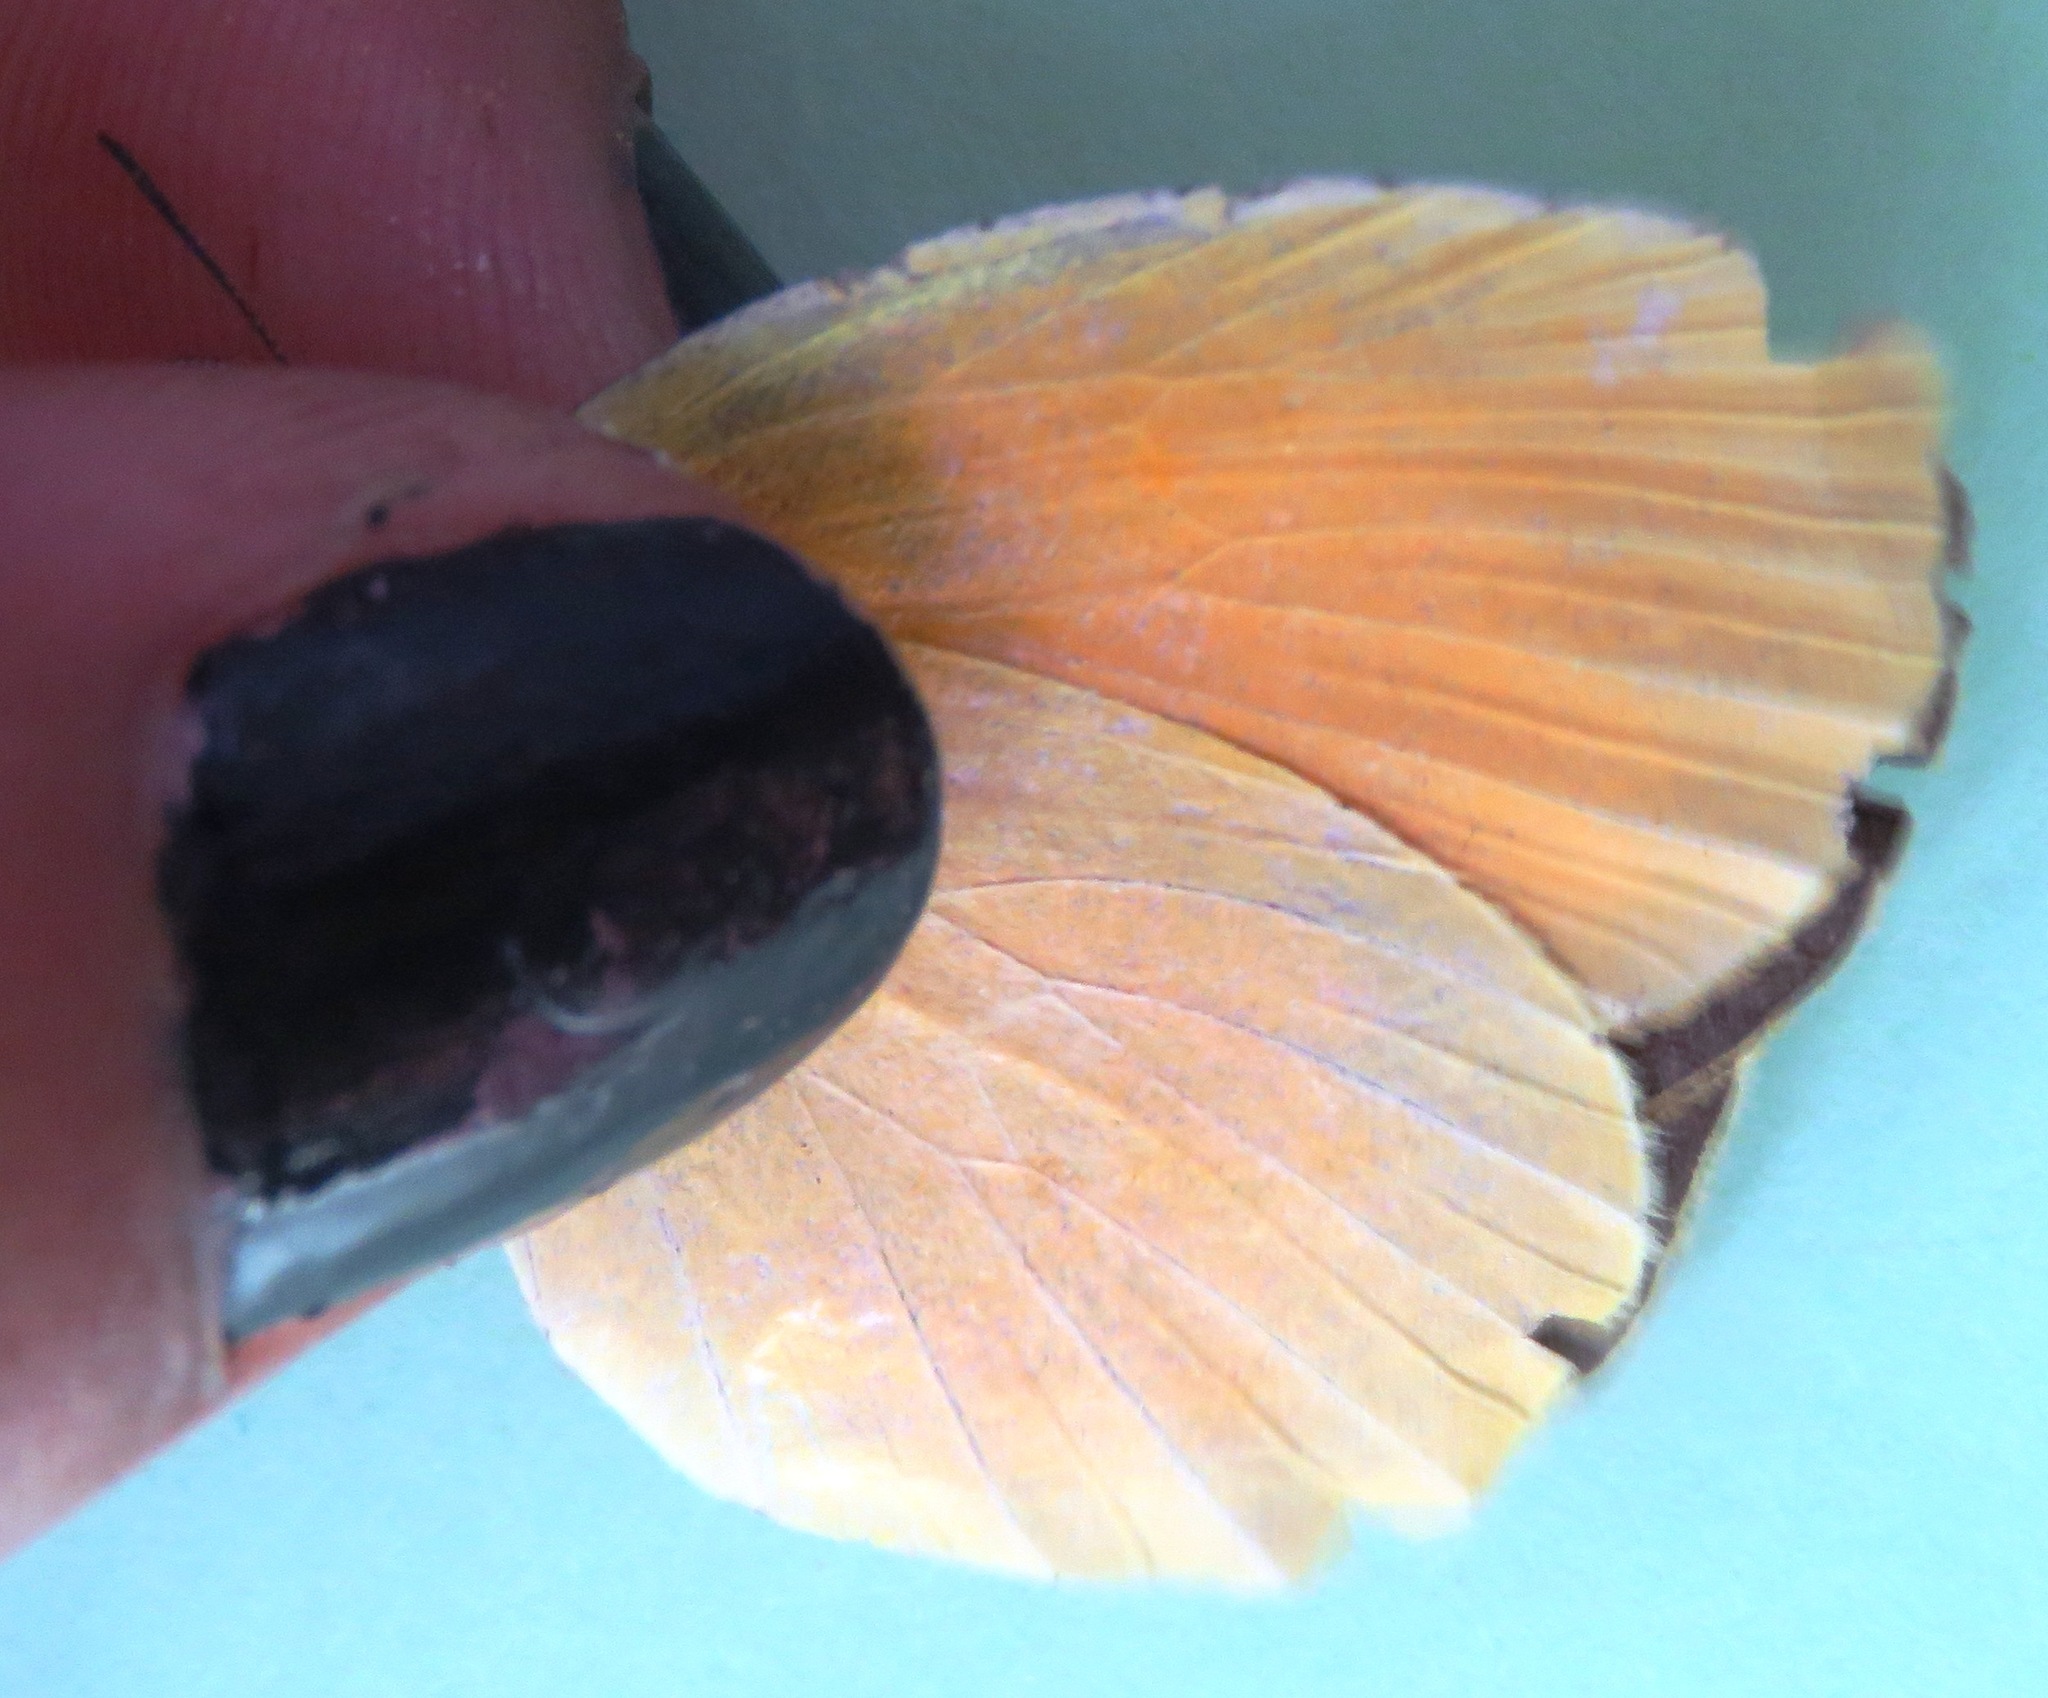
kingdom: Animalia
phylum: Arthropoda
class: Insecta
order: Lepidoptera
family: Pieridae
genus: Pyrisitia
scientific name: Pyrisitia proterpia
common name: Tailed orange
